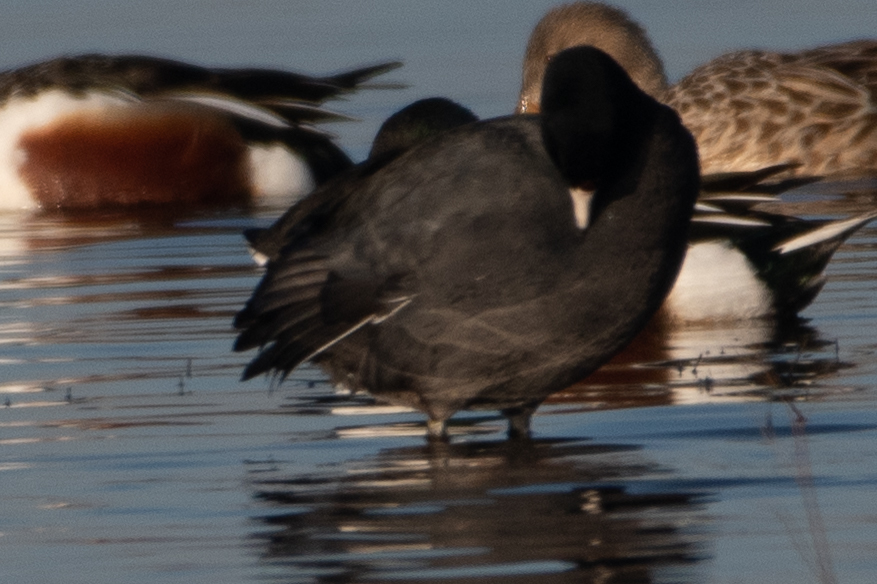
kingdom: Animalia
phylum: Chordata
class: Aves
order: Gruiformes
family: Rallidae
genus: Fulica
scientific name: Fulica americana
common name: American coot
